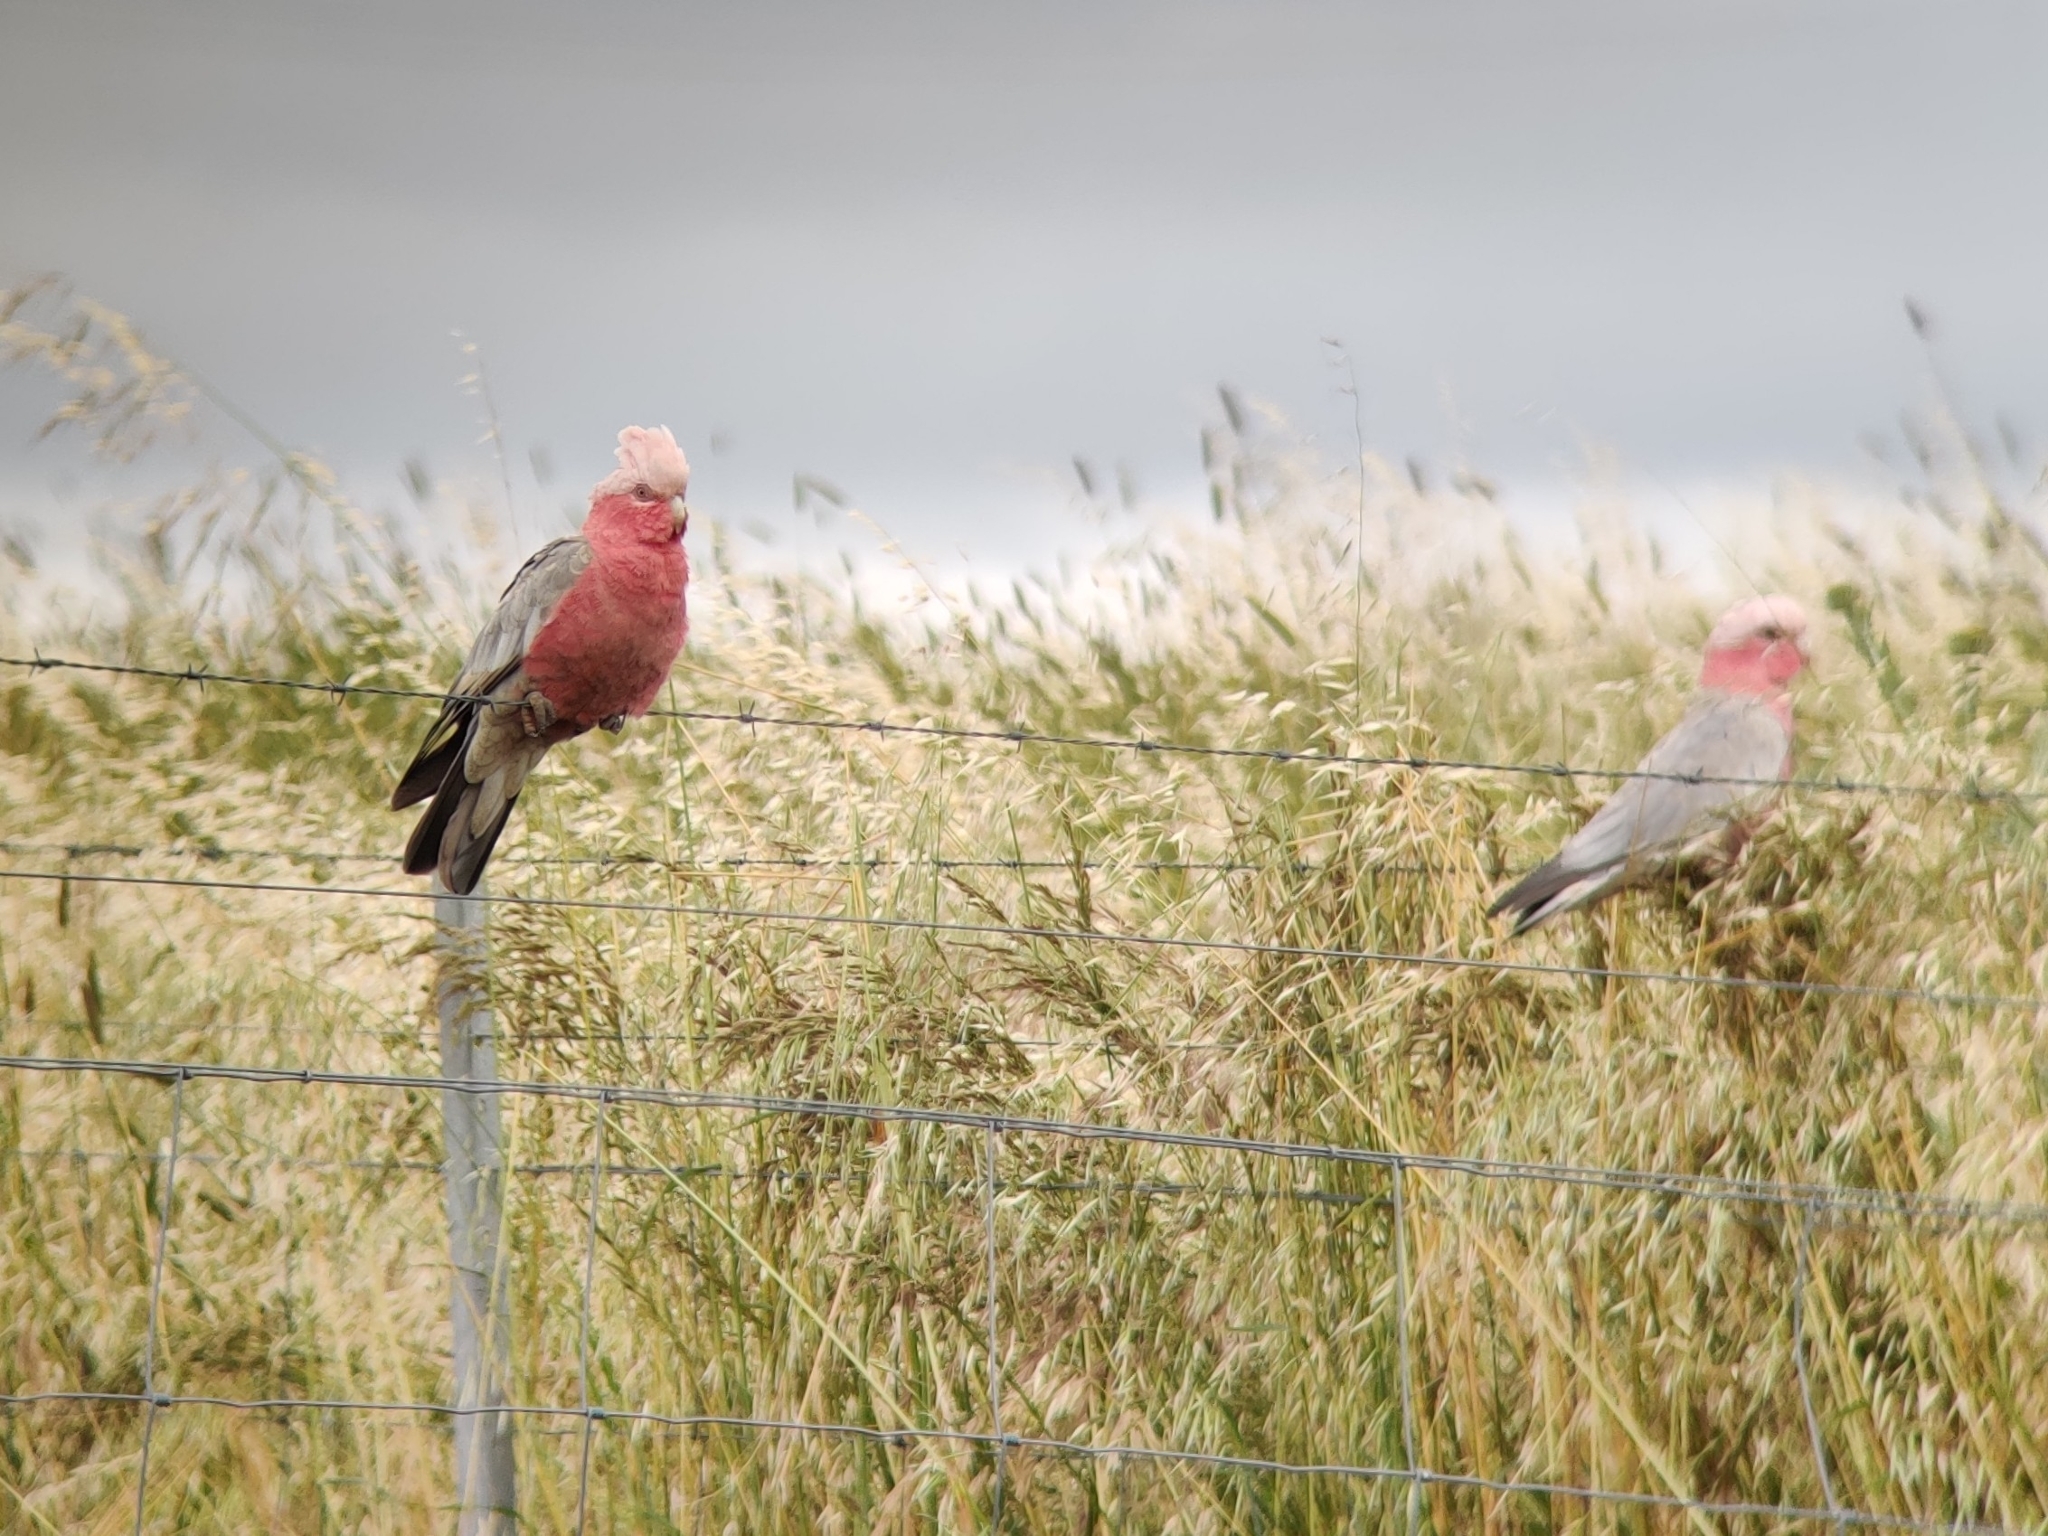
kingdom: Animalia
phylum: Chordata
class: Aves
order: Psittaciformes
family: Psittacidae
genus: Eolophus
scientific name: Eolophus roseicapilla
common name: Galah
